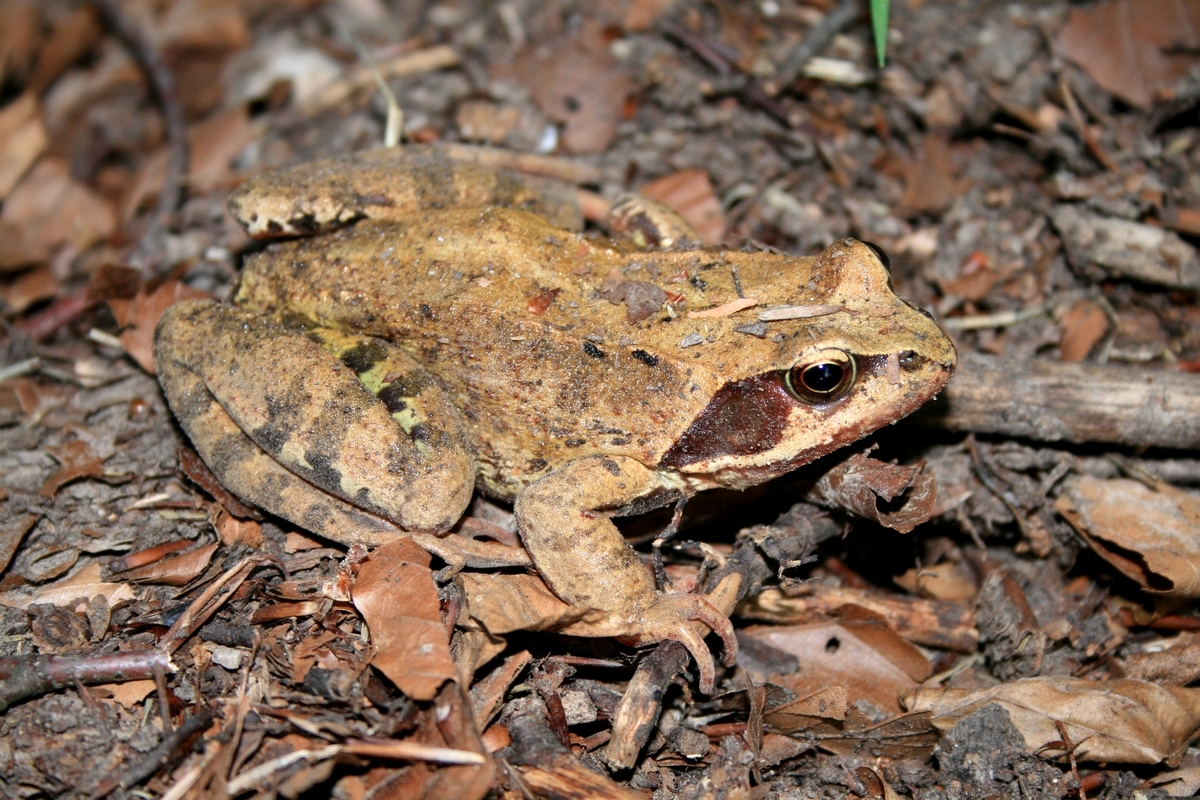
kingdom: Animalia
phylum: Chordata
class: Amphibia
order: Anura
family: Ranidae
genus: Rana
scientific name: Rana temporaria
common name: Common frog
